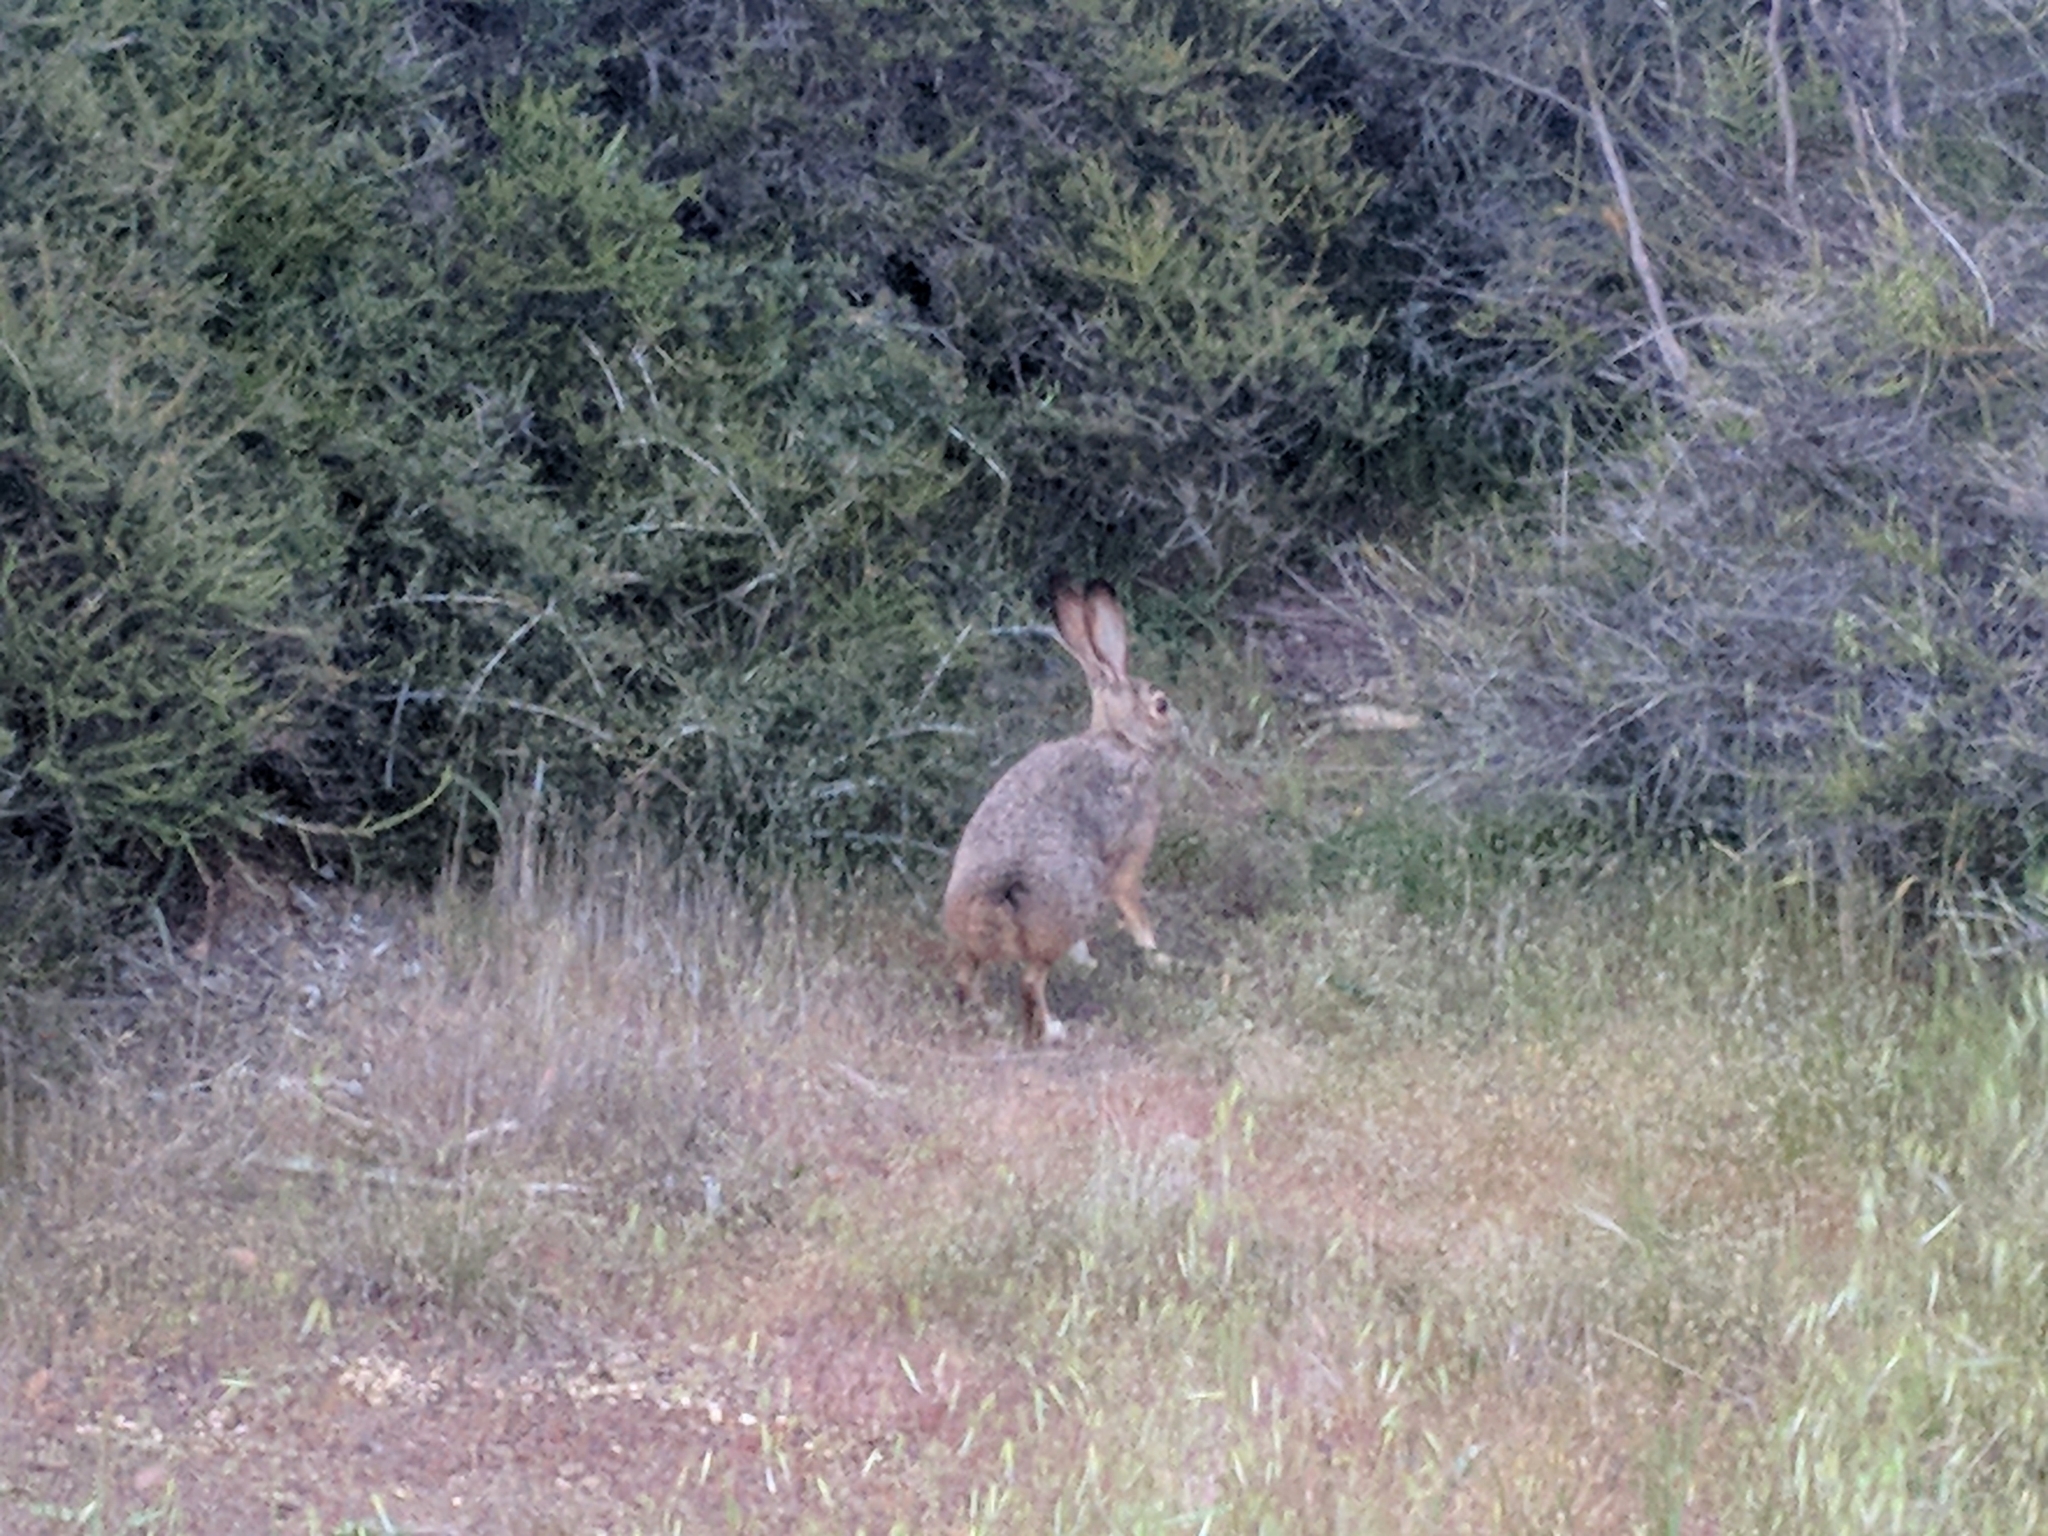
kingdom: Animalia
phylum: Chordata
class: Mammalia
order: Lagomorpha
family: Leporidae
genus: Lepus
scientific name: Lepus californicus
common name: Black-tailed jackrabbit
